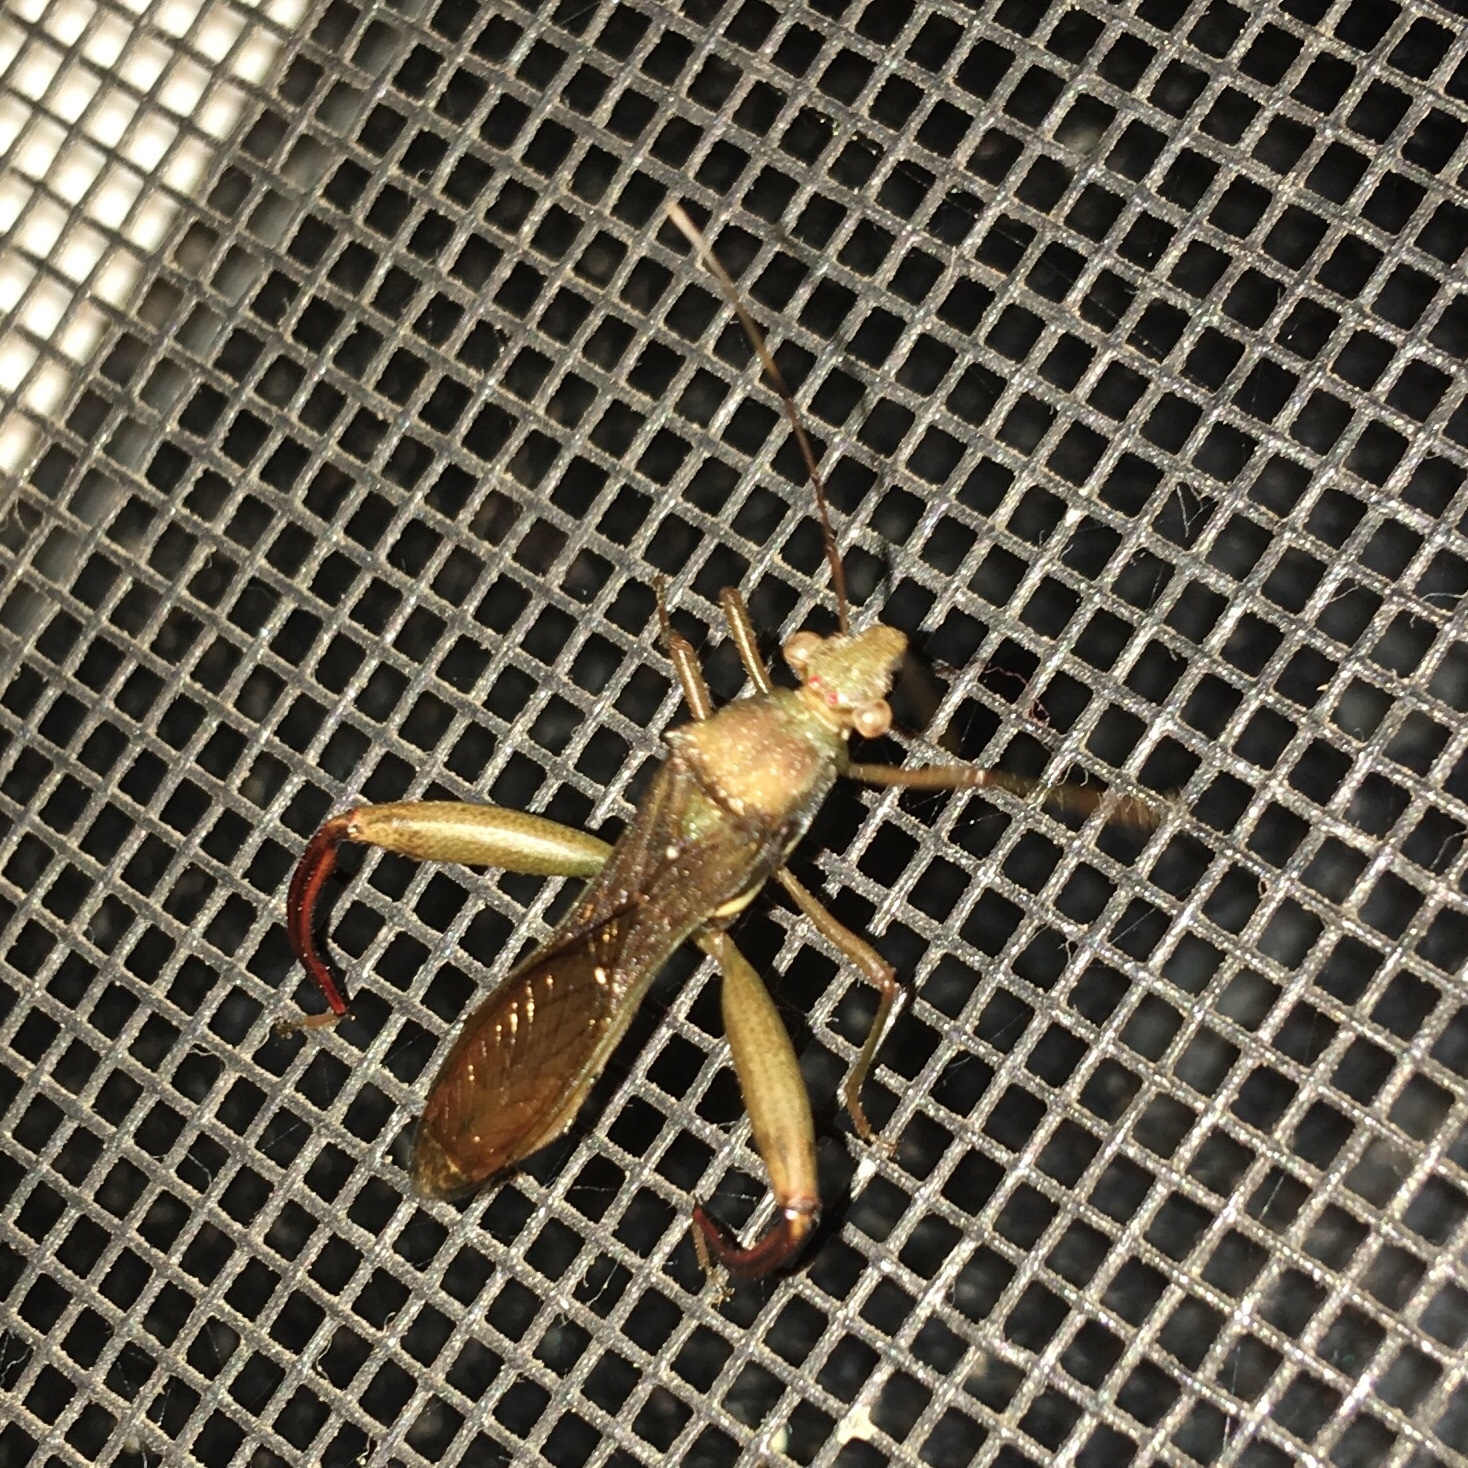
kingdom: Animalia
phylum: Arthropoda
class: Insecta
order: Hemiptera
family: Alydidae
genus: Hyalymenus
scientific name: Hyalymenus tarsatus
